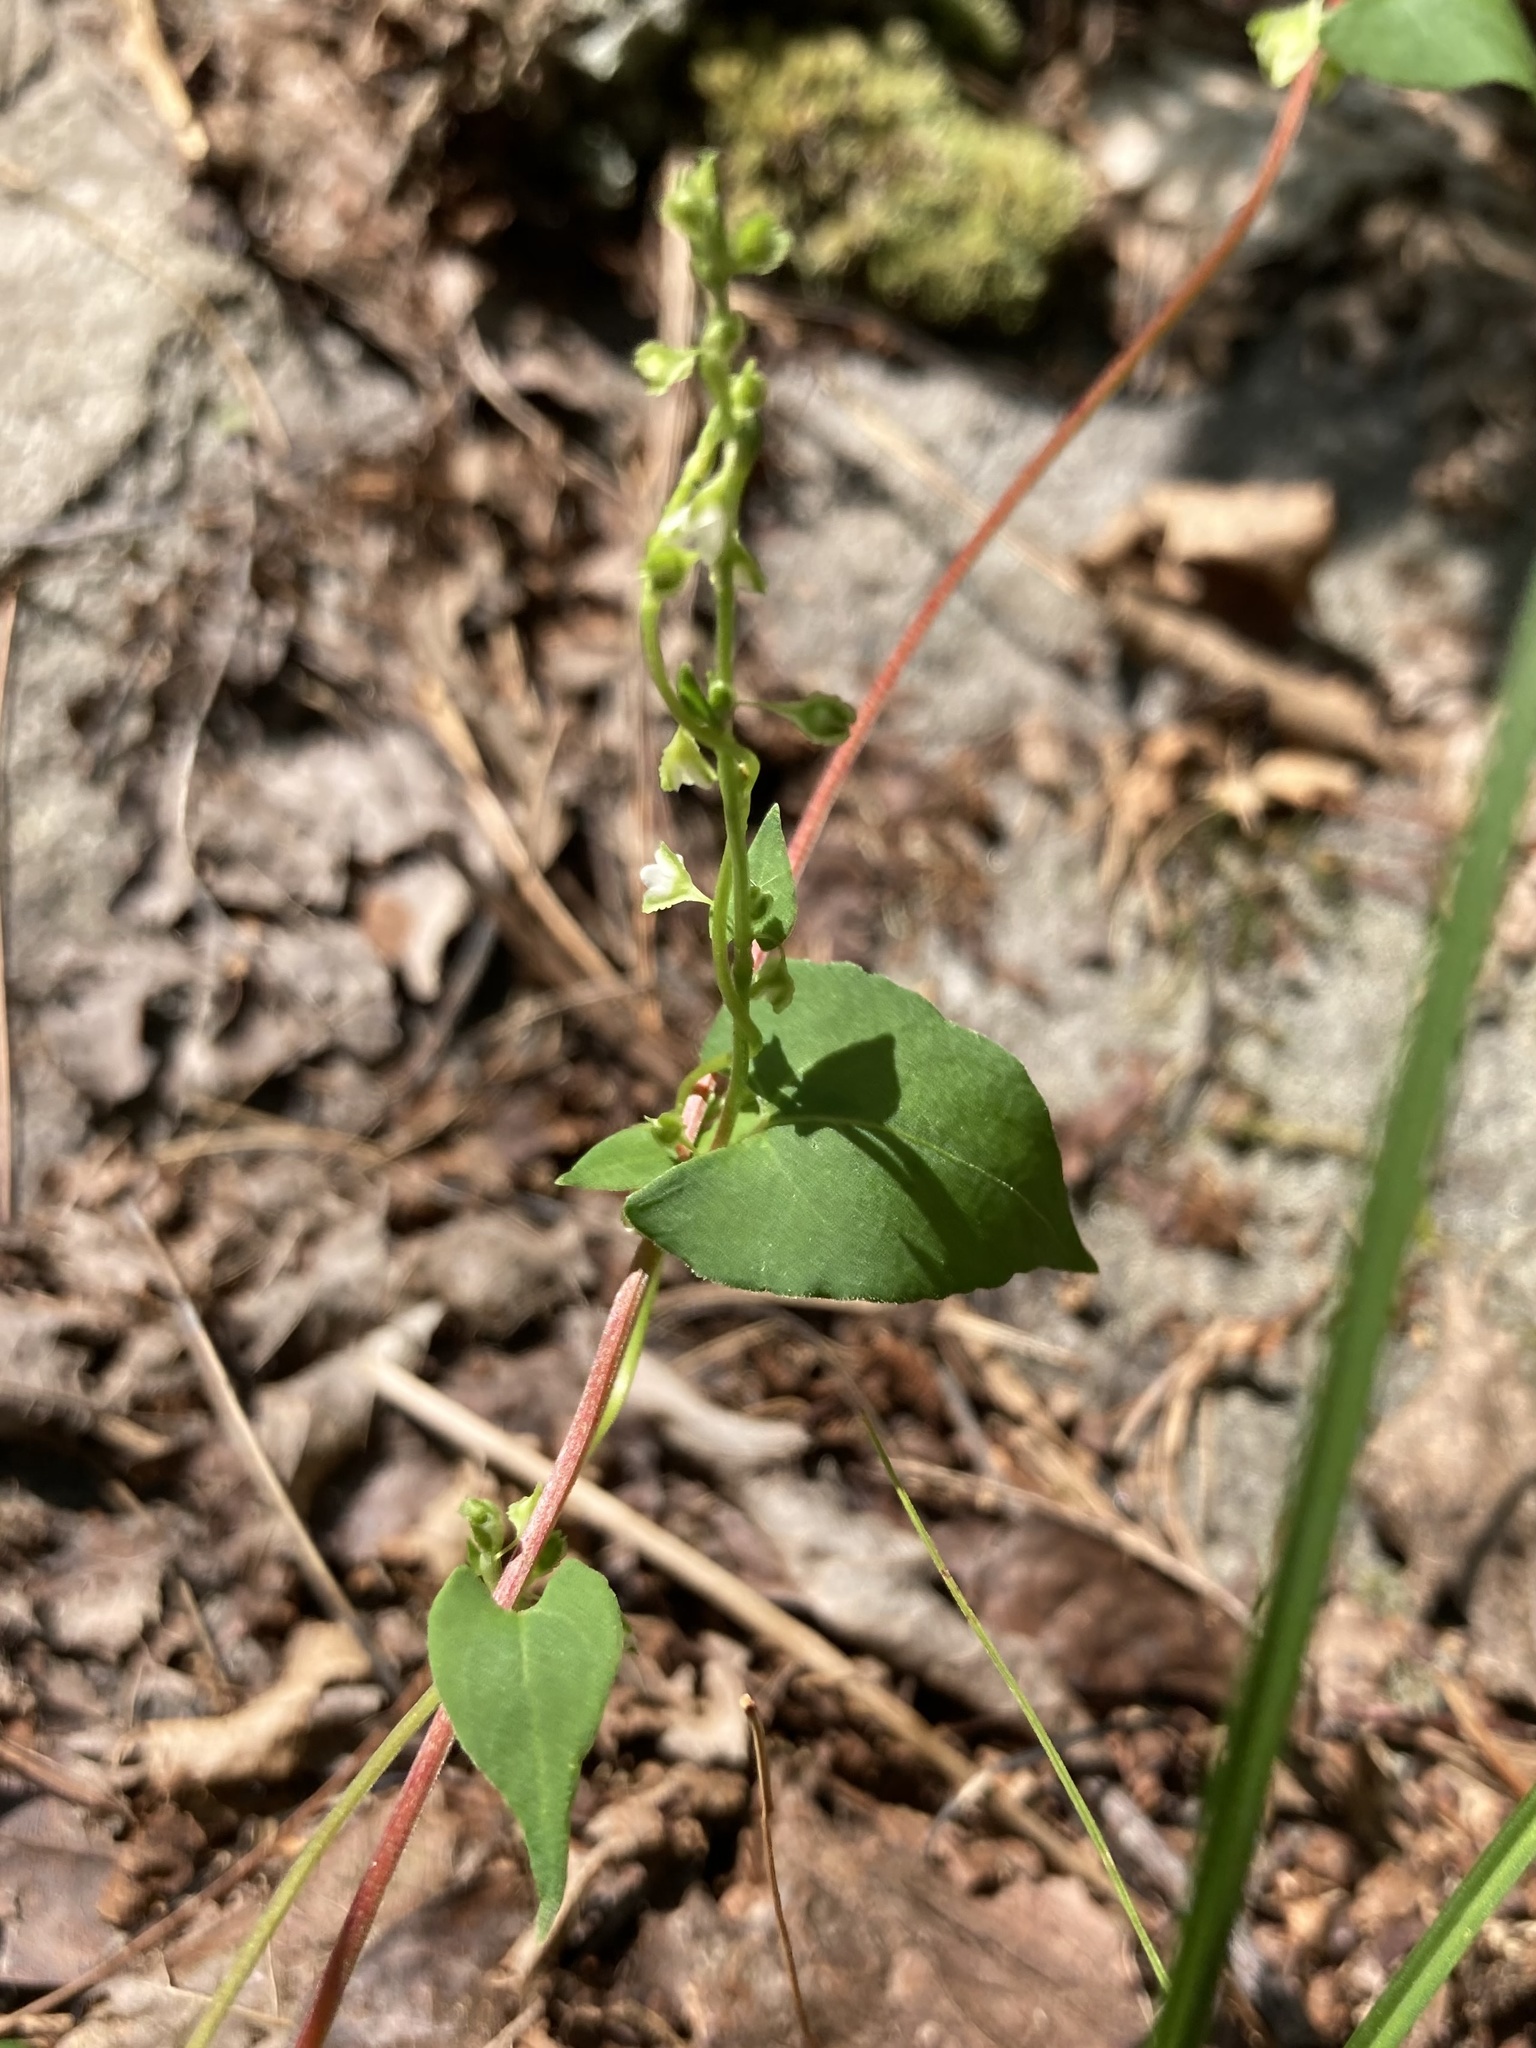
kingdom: Plantae
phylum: Tracheophyta
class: Magnoliopsida
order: Caryophyllales
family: Polygonaceae
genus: Fallopia
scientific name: Fallopia scandens
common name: Climbing false buckwheat
